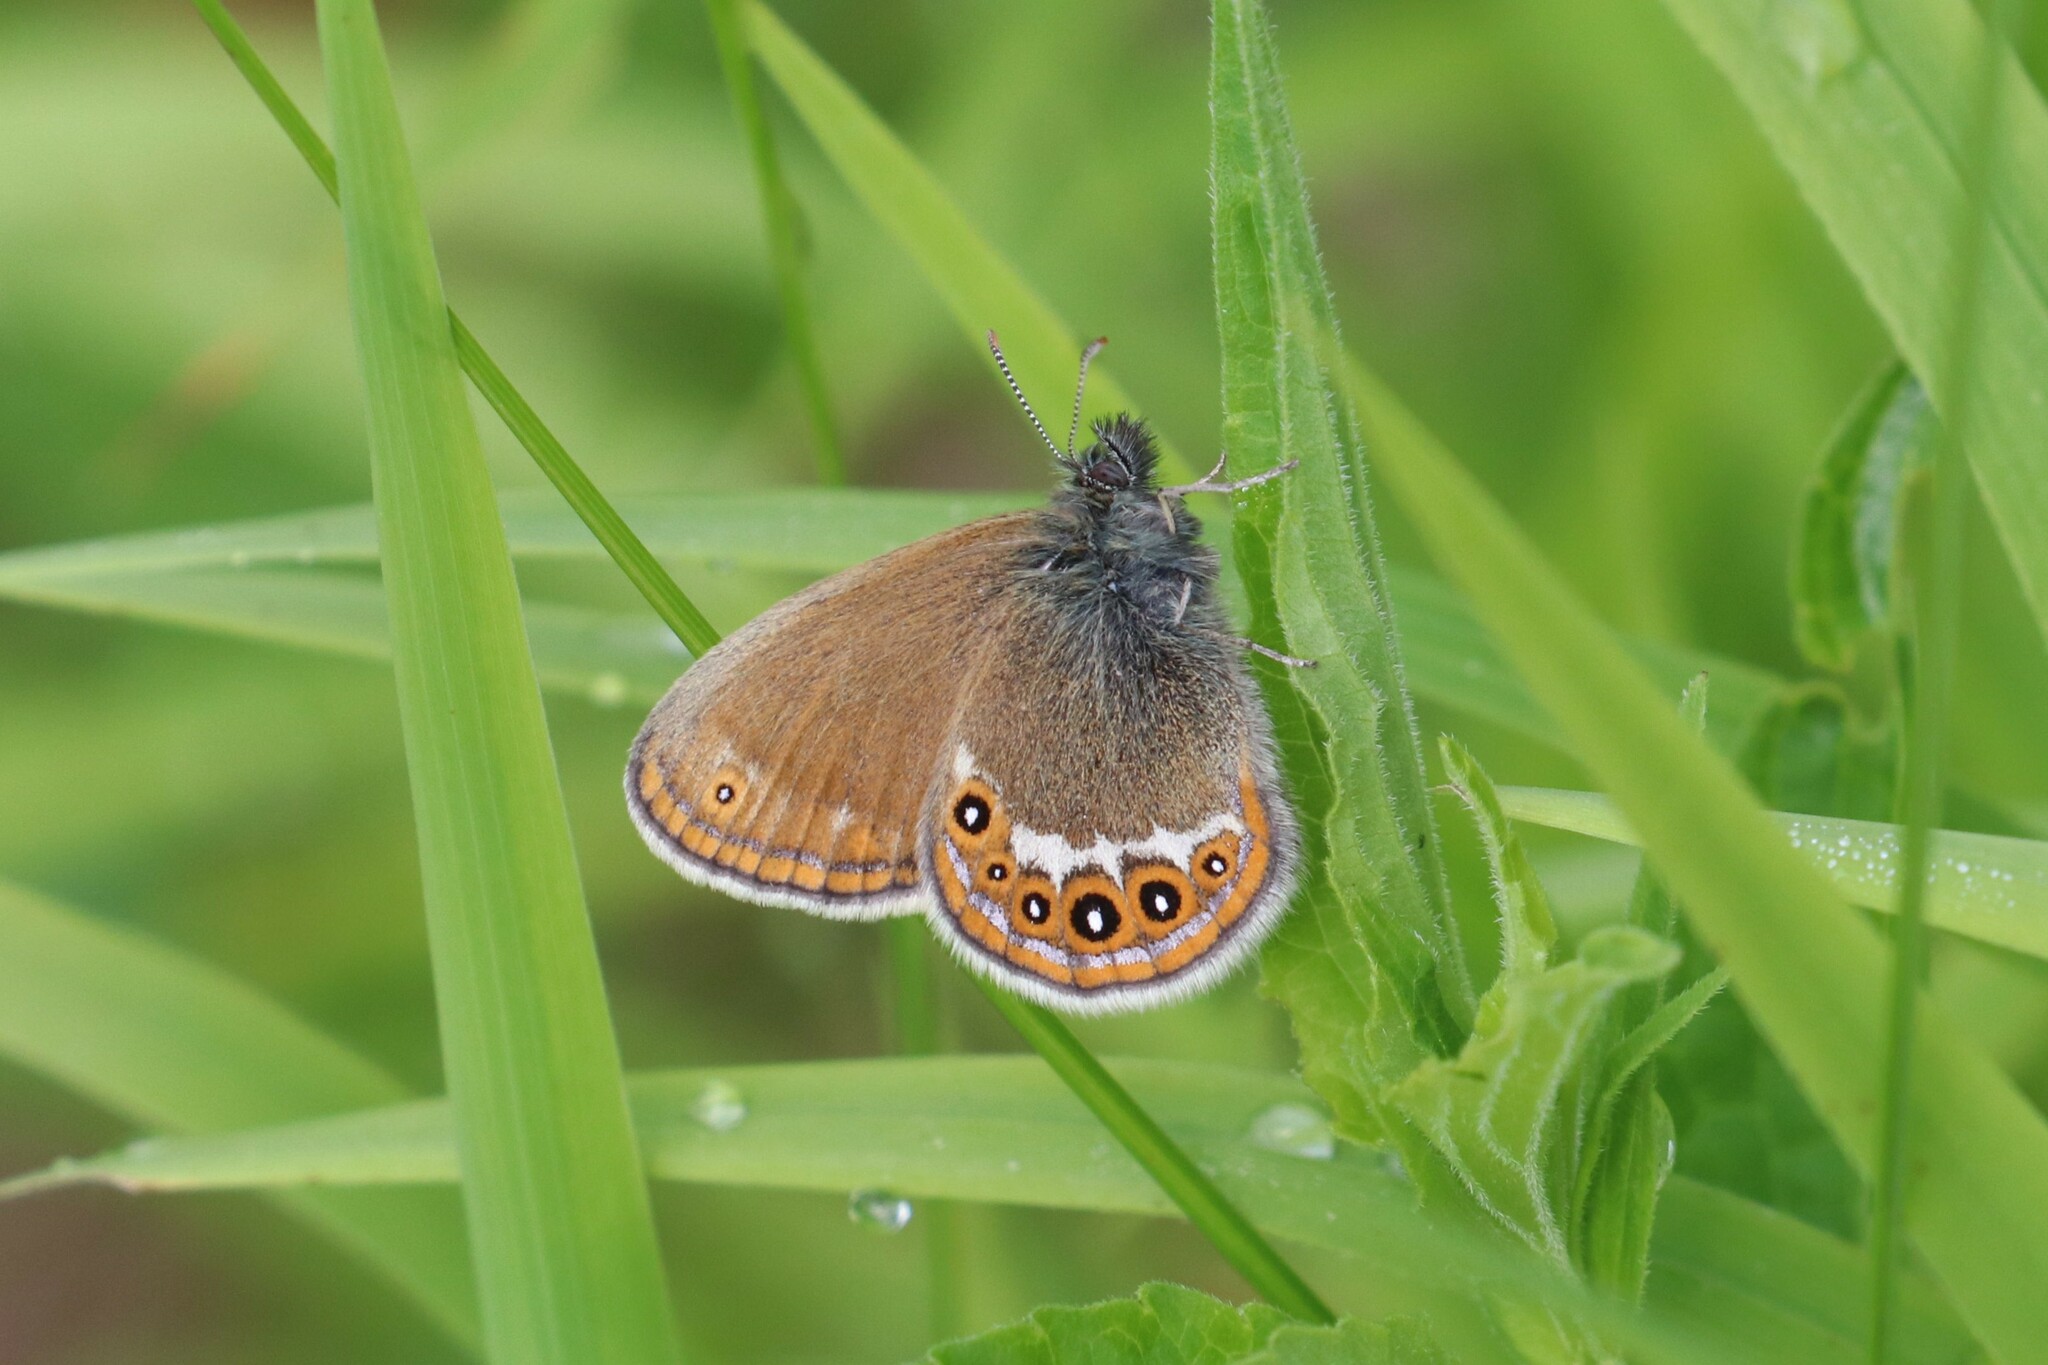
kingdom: Animalia
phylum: Arthropoda
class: Insecta
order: Lepidoptera
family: Nymphalidae
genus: Coenonympha
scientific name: Coenonympha hero
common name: Scarce heath
